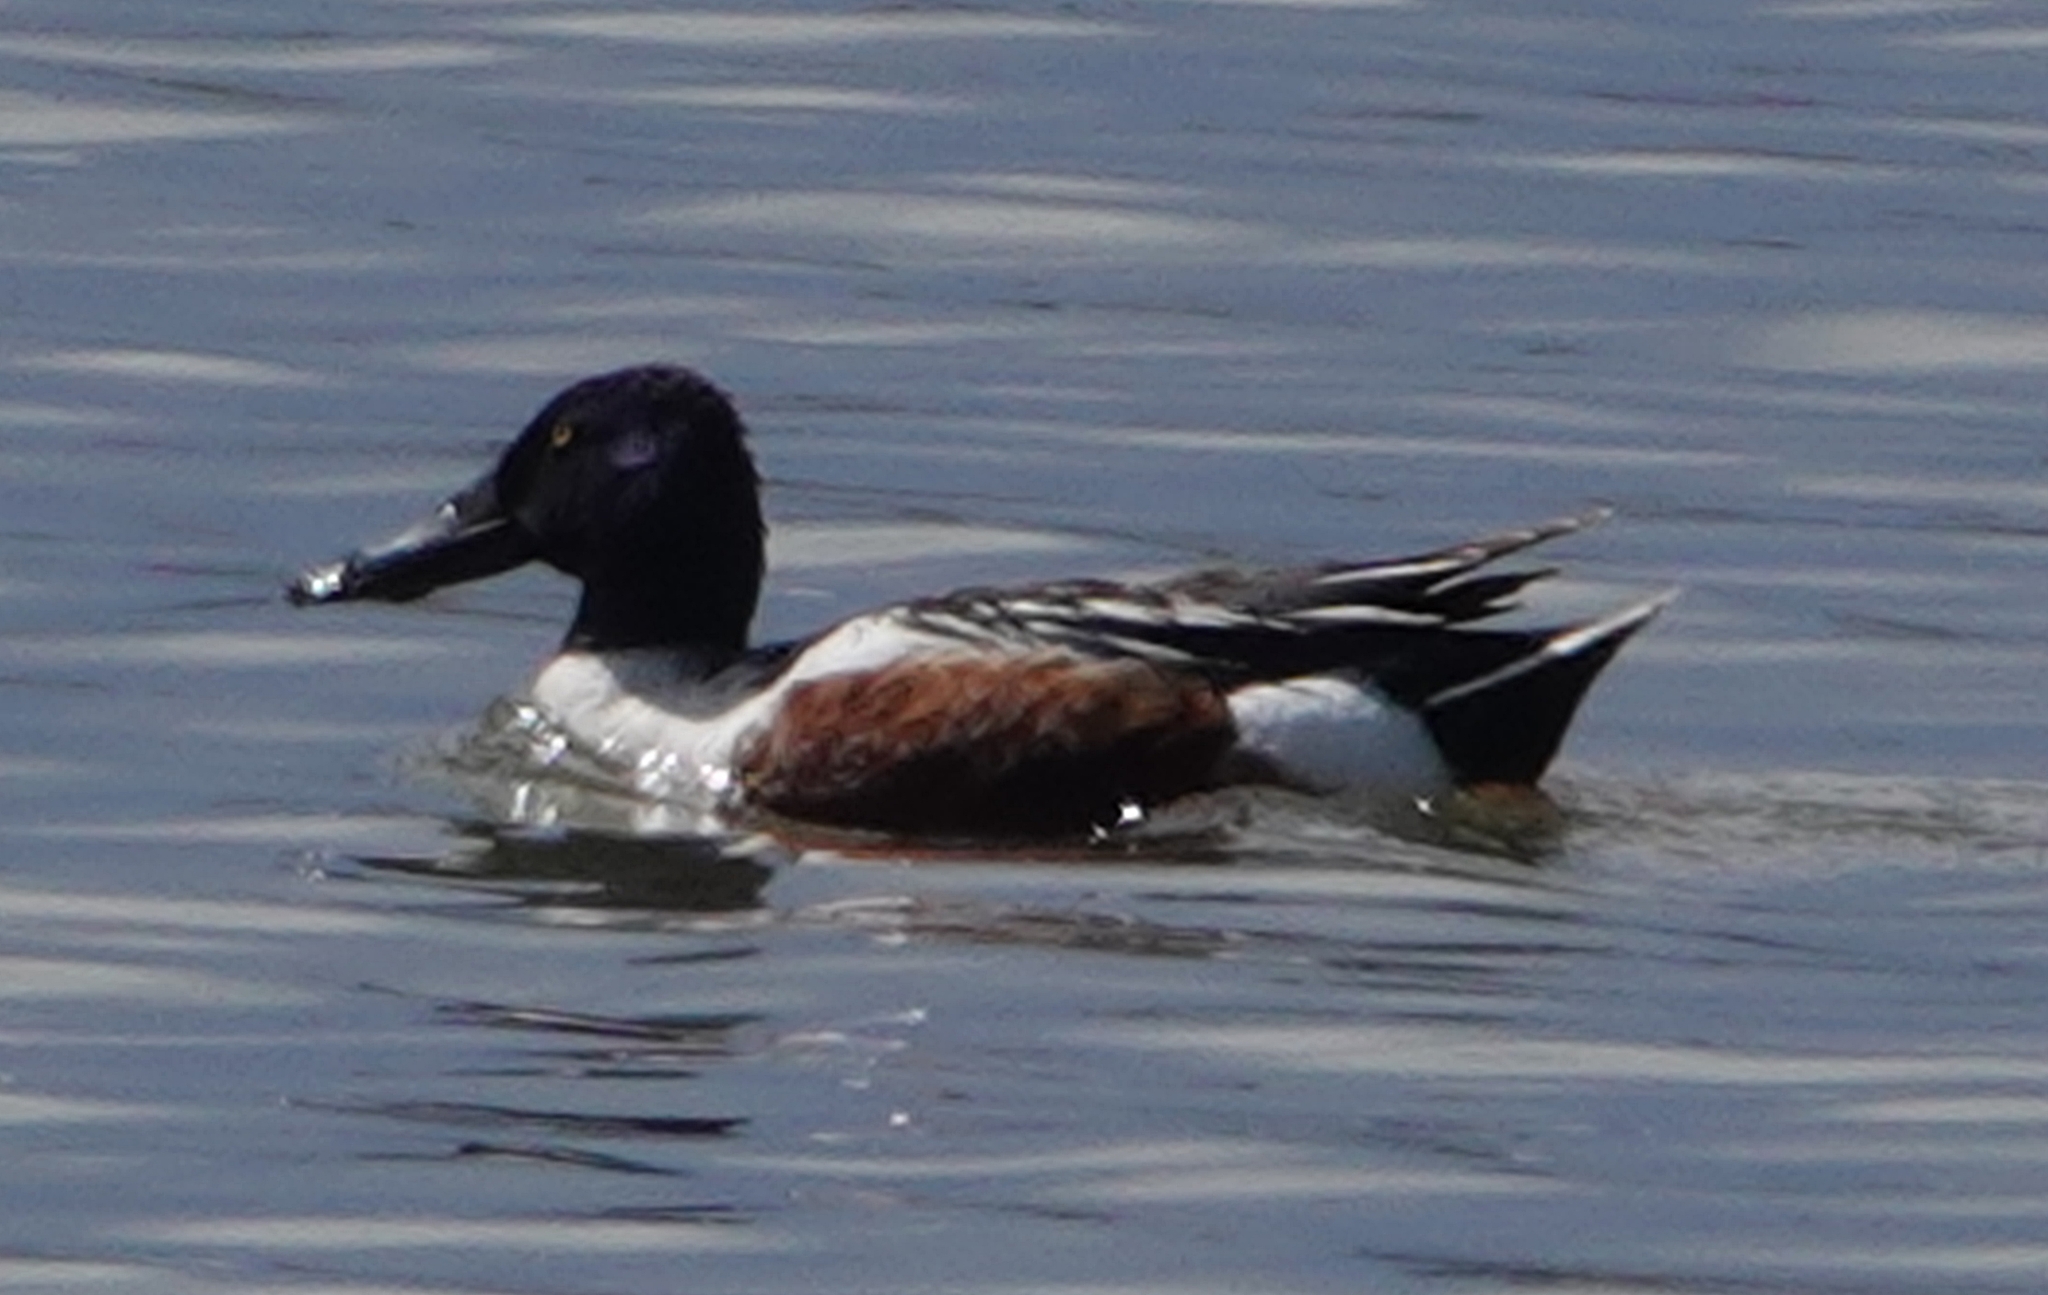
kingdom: Animalia
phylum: Chordata
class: Aves
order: Anseriformes
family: Anatidae
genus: Spatula
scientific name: Spatula clypeata
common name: Northern shoveler
